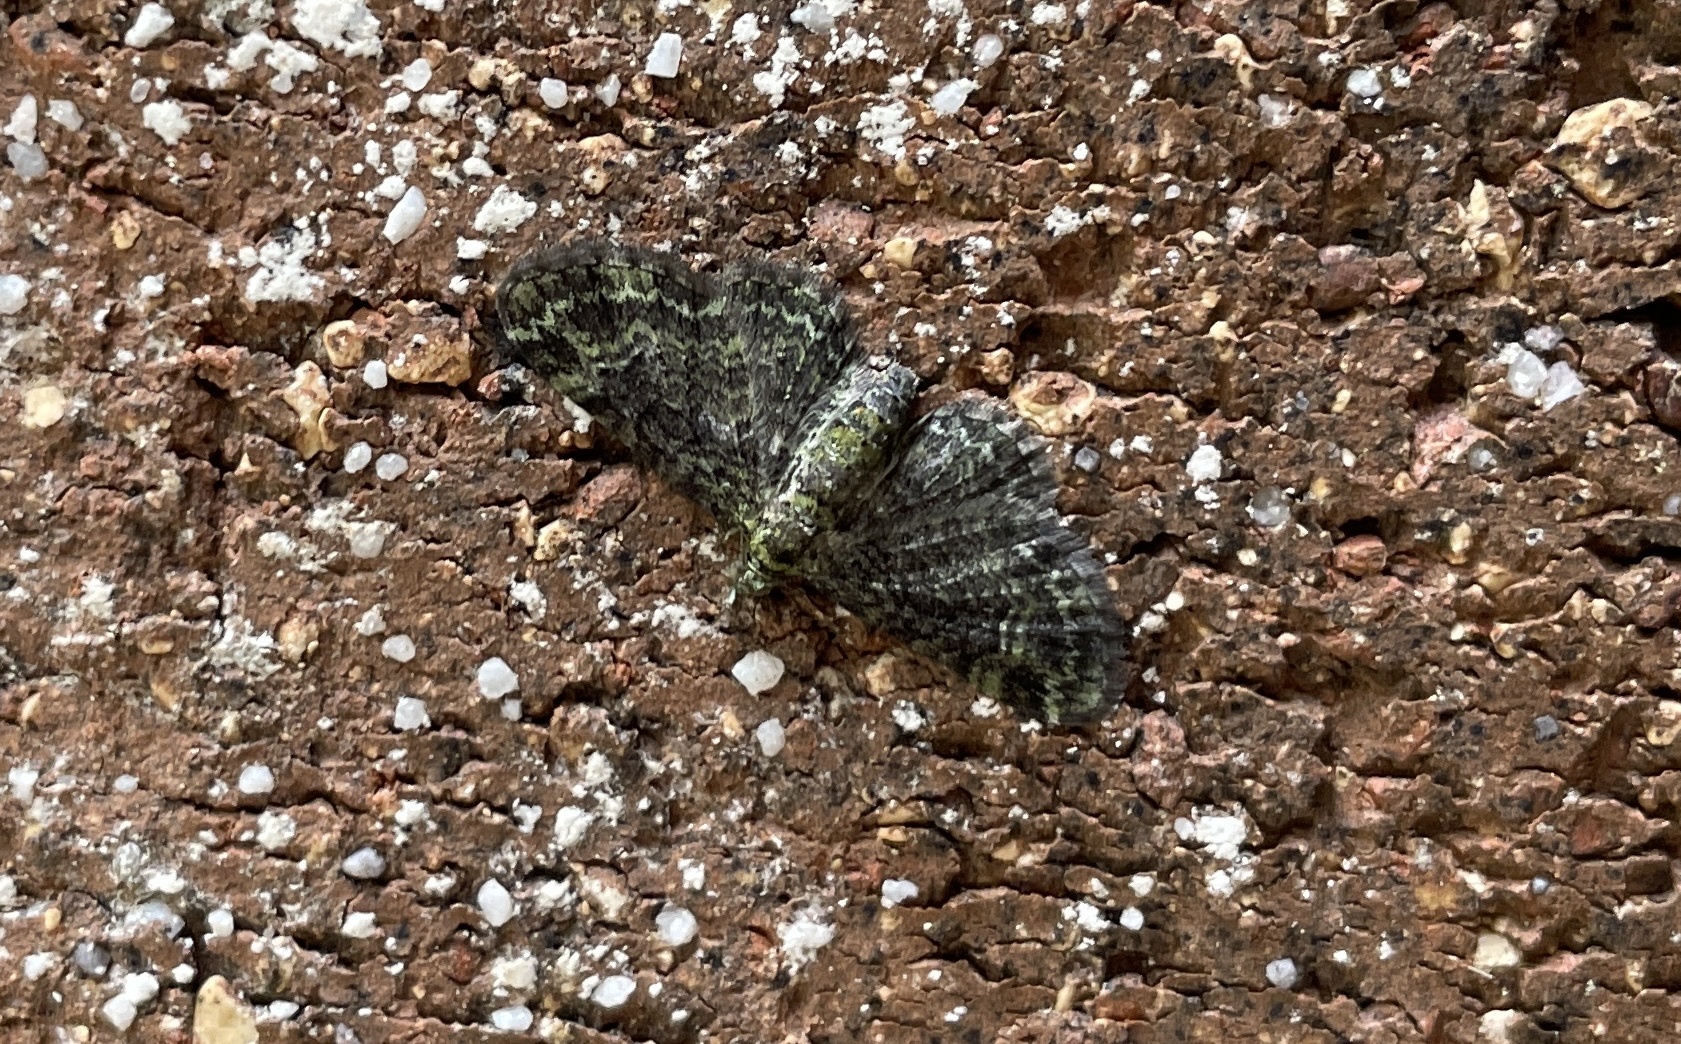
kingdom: Animalia
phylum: Arthropoda
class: Insecta
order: Lepidoptera
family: Geometridae
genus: Pasiphila
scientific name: Pasiphila rectangulata
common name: Green pug
